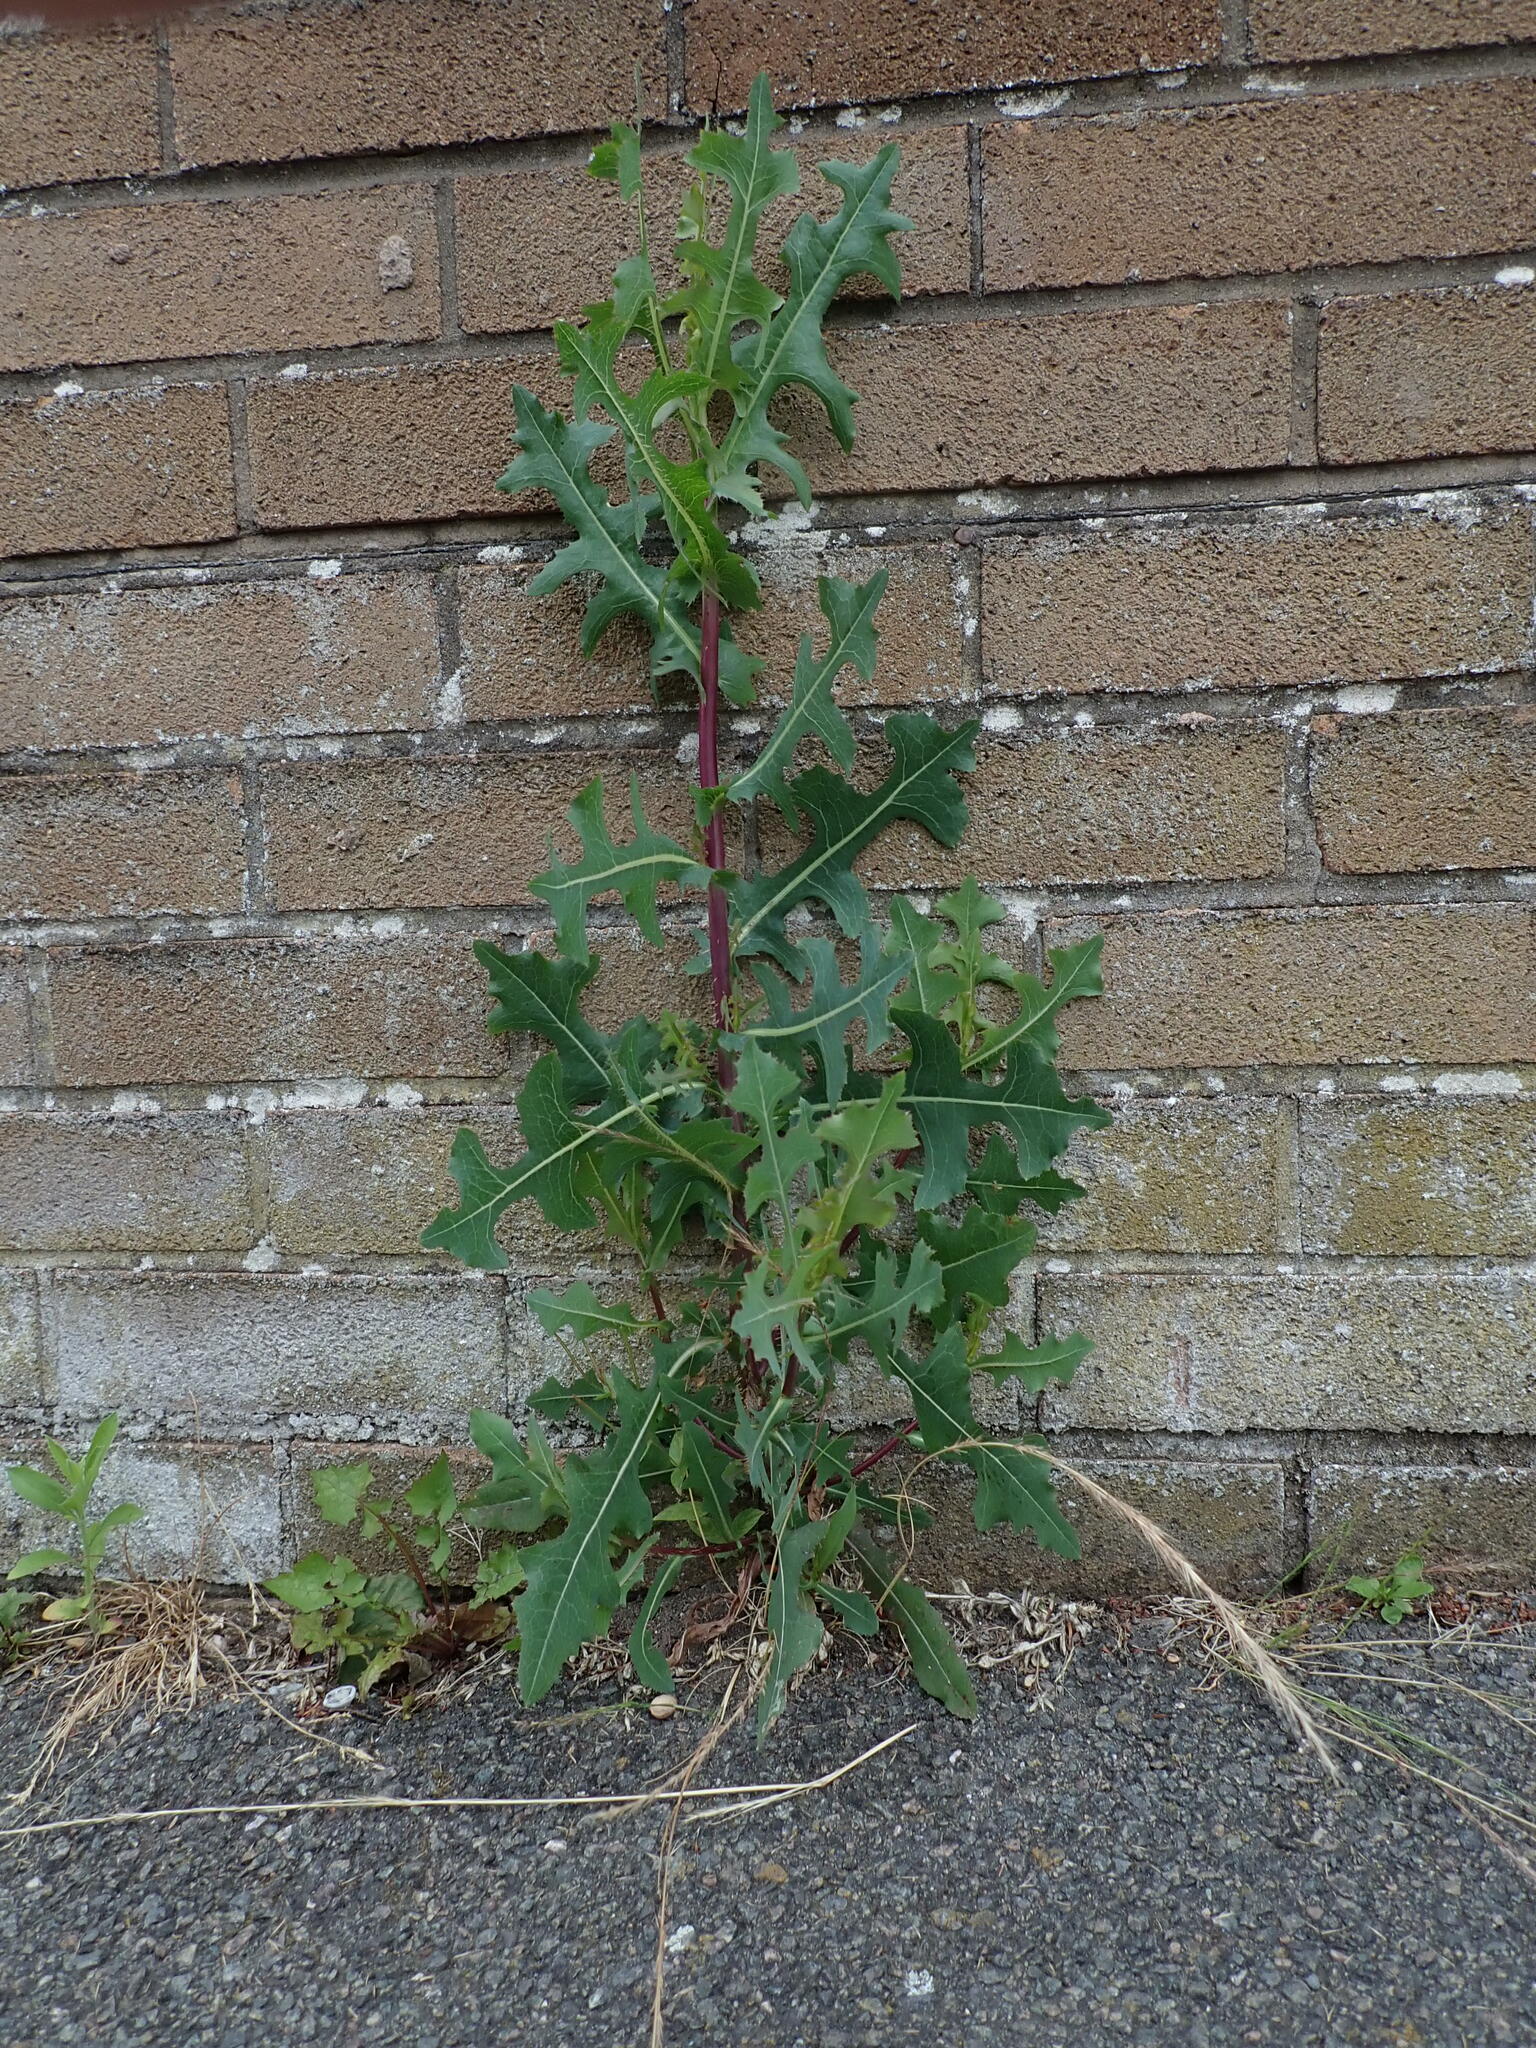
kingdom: Plantae
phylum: Tracheophyta
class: Magnoliopsida
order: Asterales
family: Asteraceae
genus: Lactuca
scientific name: Lactuca serriola
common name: Prickly lettuce
